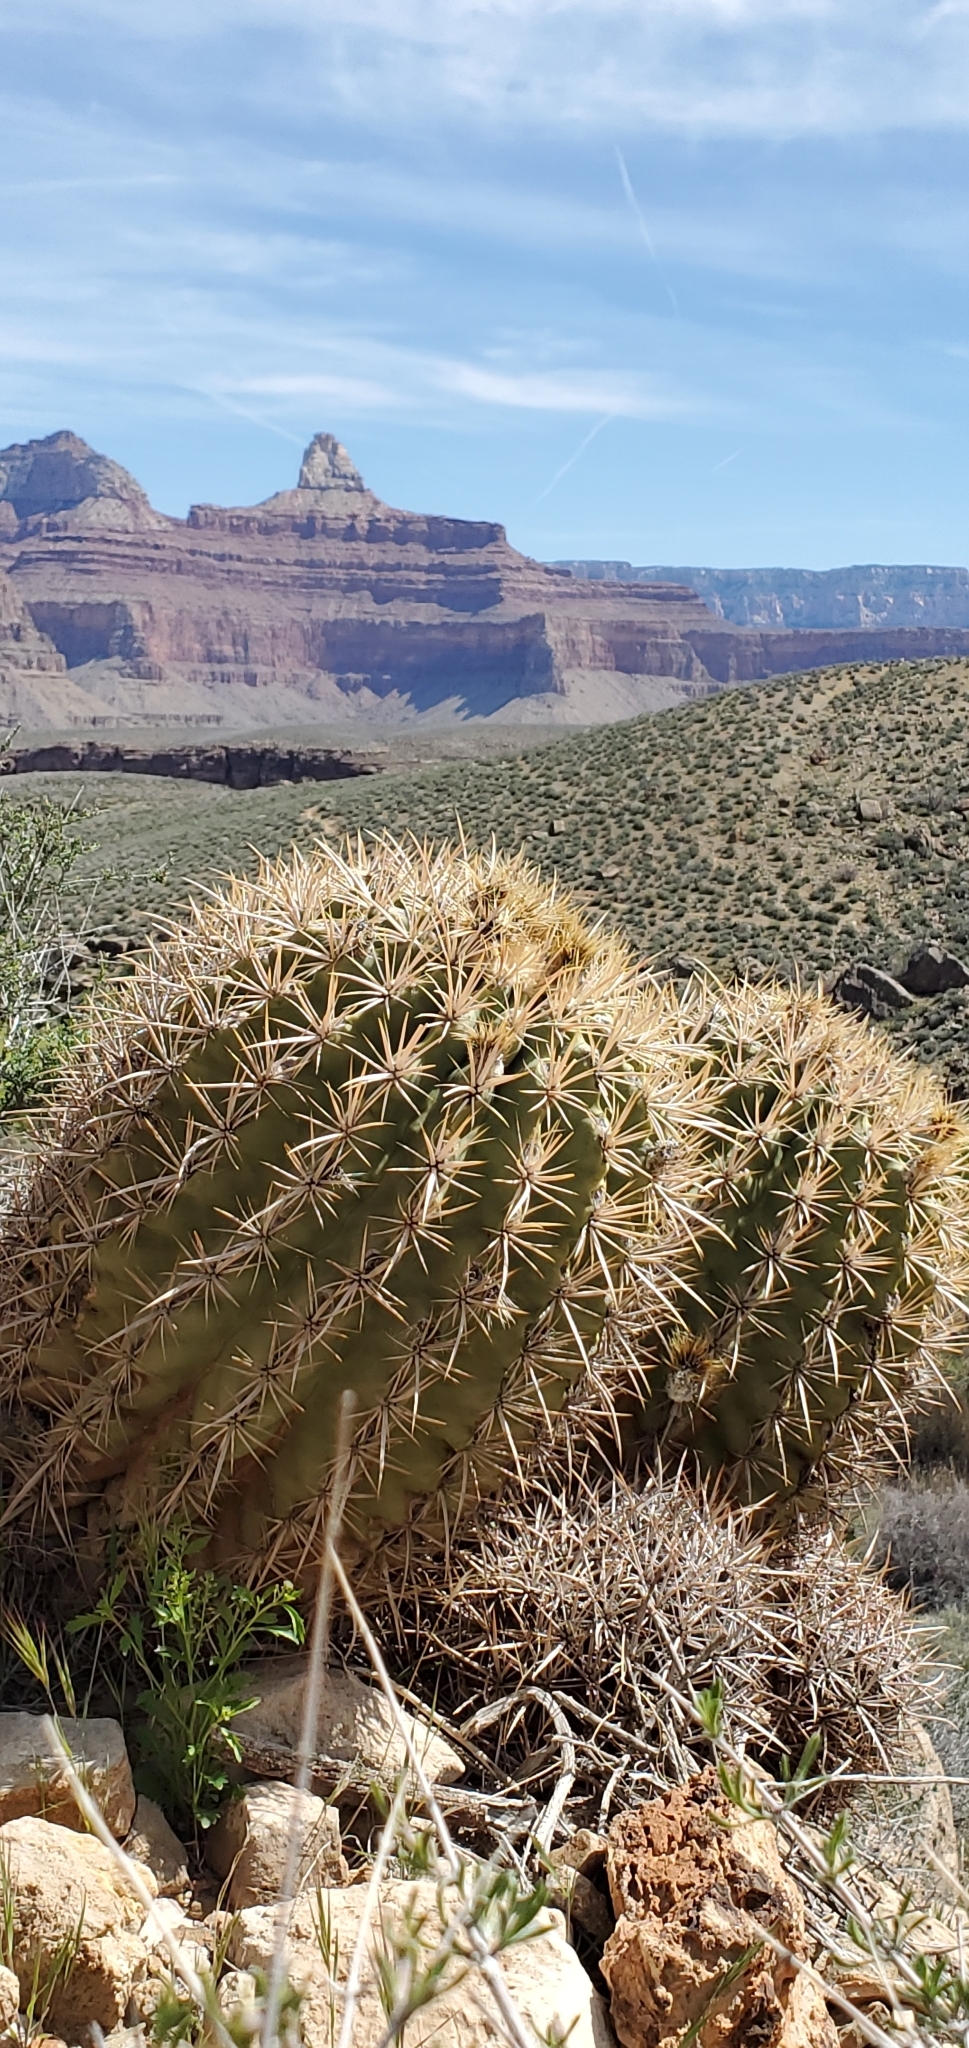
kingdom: Plantae
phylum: Tracheophyta
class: Magnoliopsida
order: Caryophyllales
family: Cactaceae
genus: Echinocactus
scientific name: Echinocactus polycephalus
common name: Cottontop cactus
